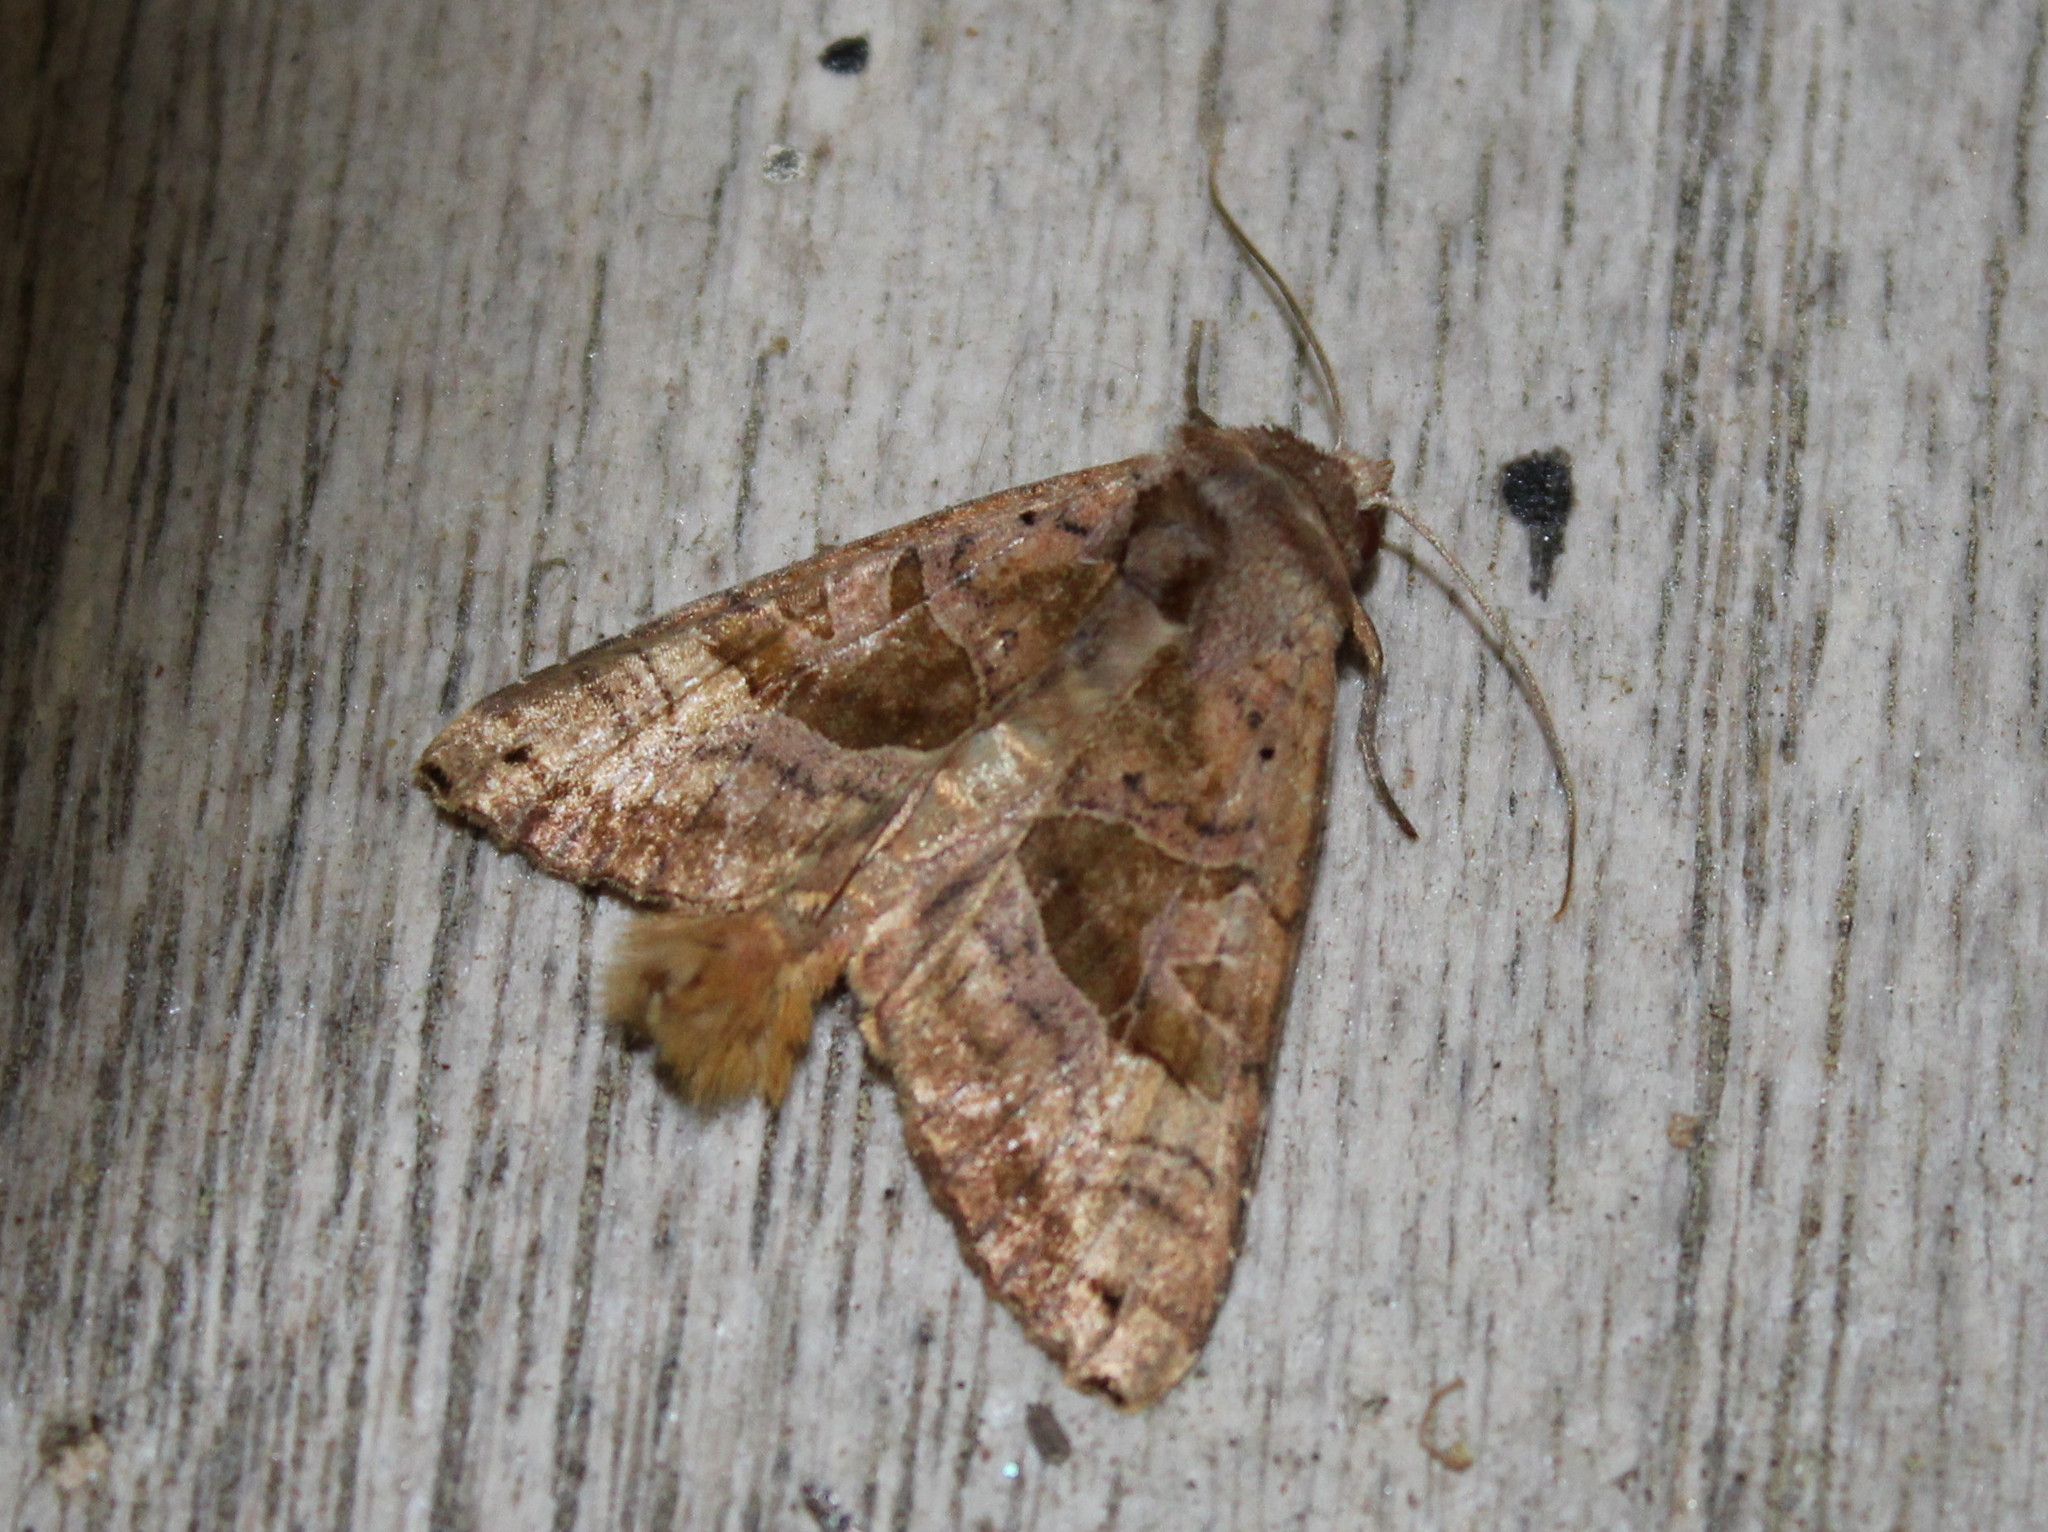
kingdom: Animalia
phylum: Arthropoda
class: Insecta
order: Lepidoptera
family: Noctuidae
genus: Phlogophora
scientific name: Phlogophora periculosa
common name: Brown angle shades
